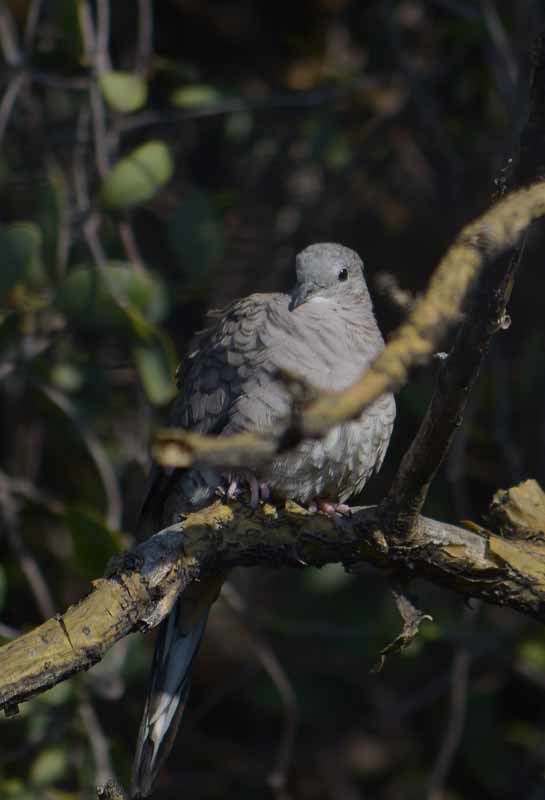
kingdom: Animalia
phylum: Chordata
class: Aves
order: Columbiformes
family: Columbidae
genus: Columbina
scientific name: Columbina inca
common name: Inca dove
